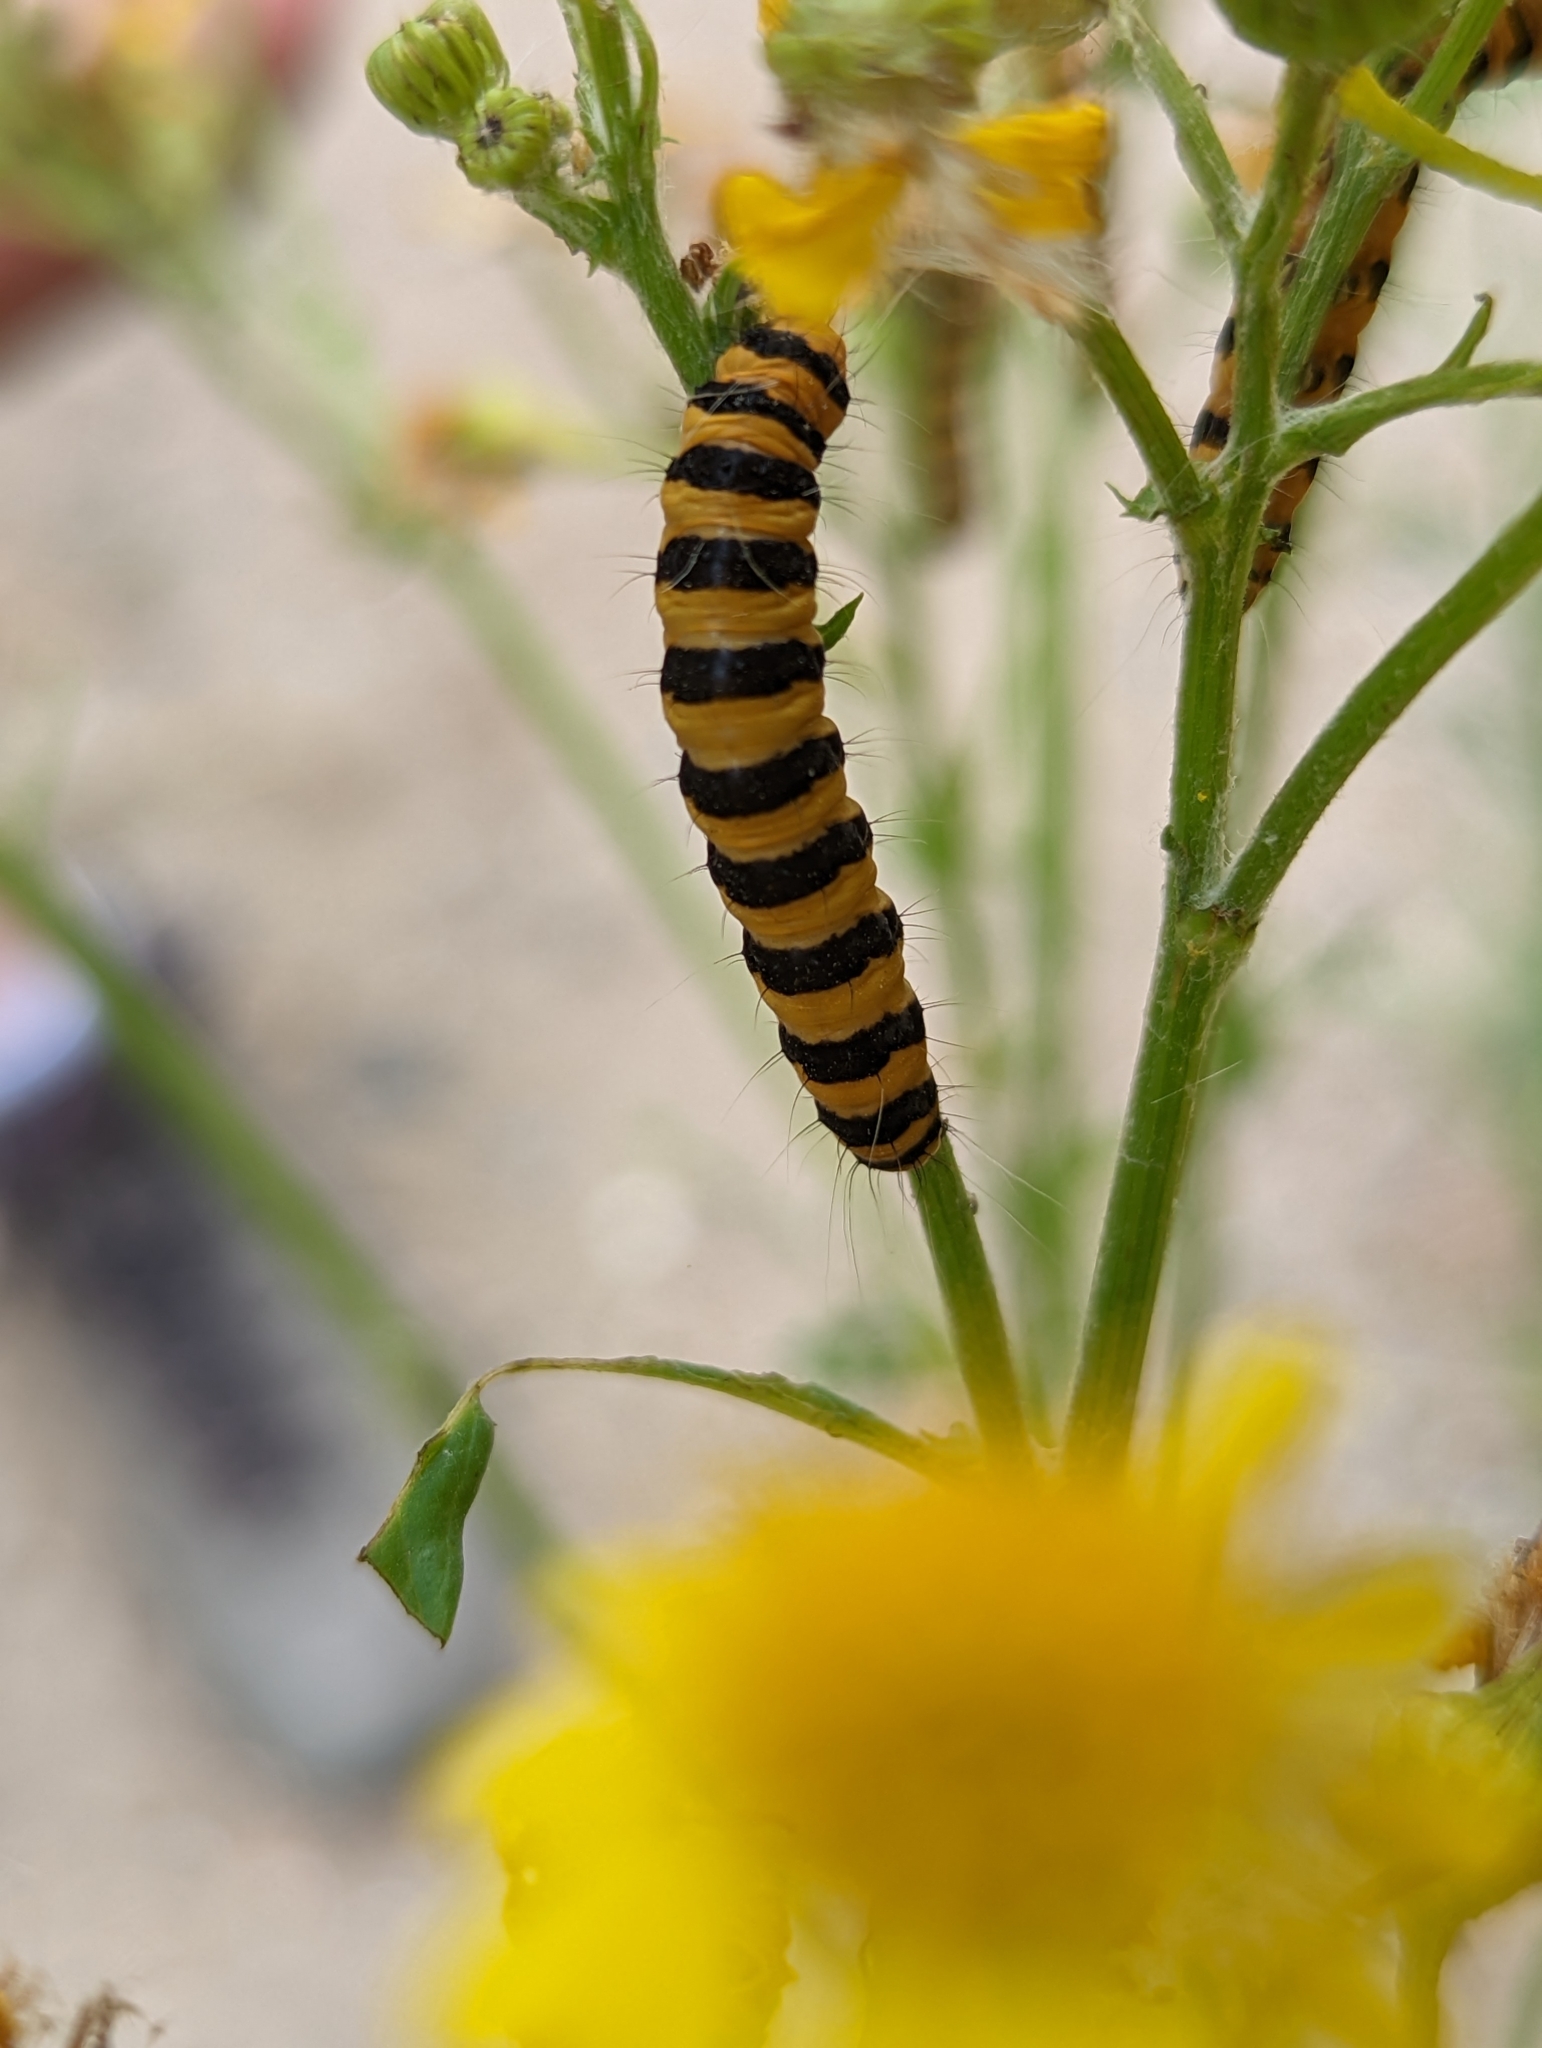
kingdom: Animalia
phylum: Arthropoda
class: Insecta
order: Lepidoptera
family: Erebidae
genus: Tyria
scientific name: Tyria jacobaeae
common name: Cinnabar
